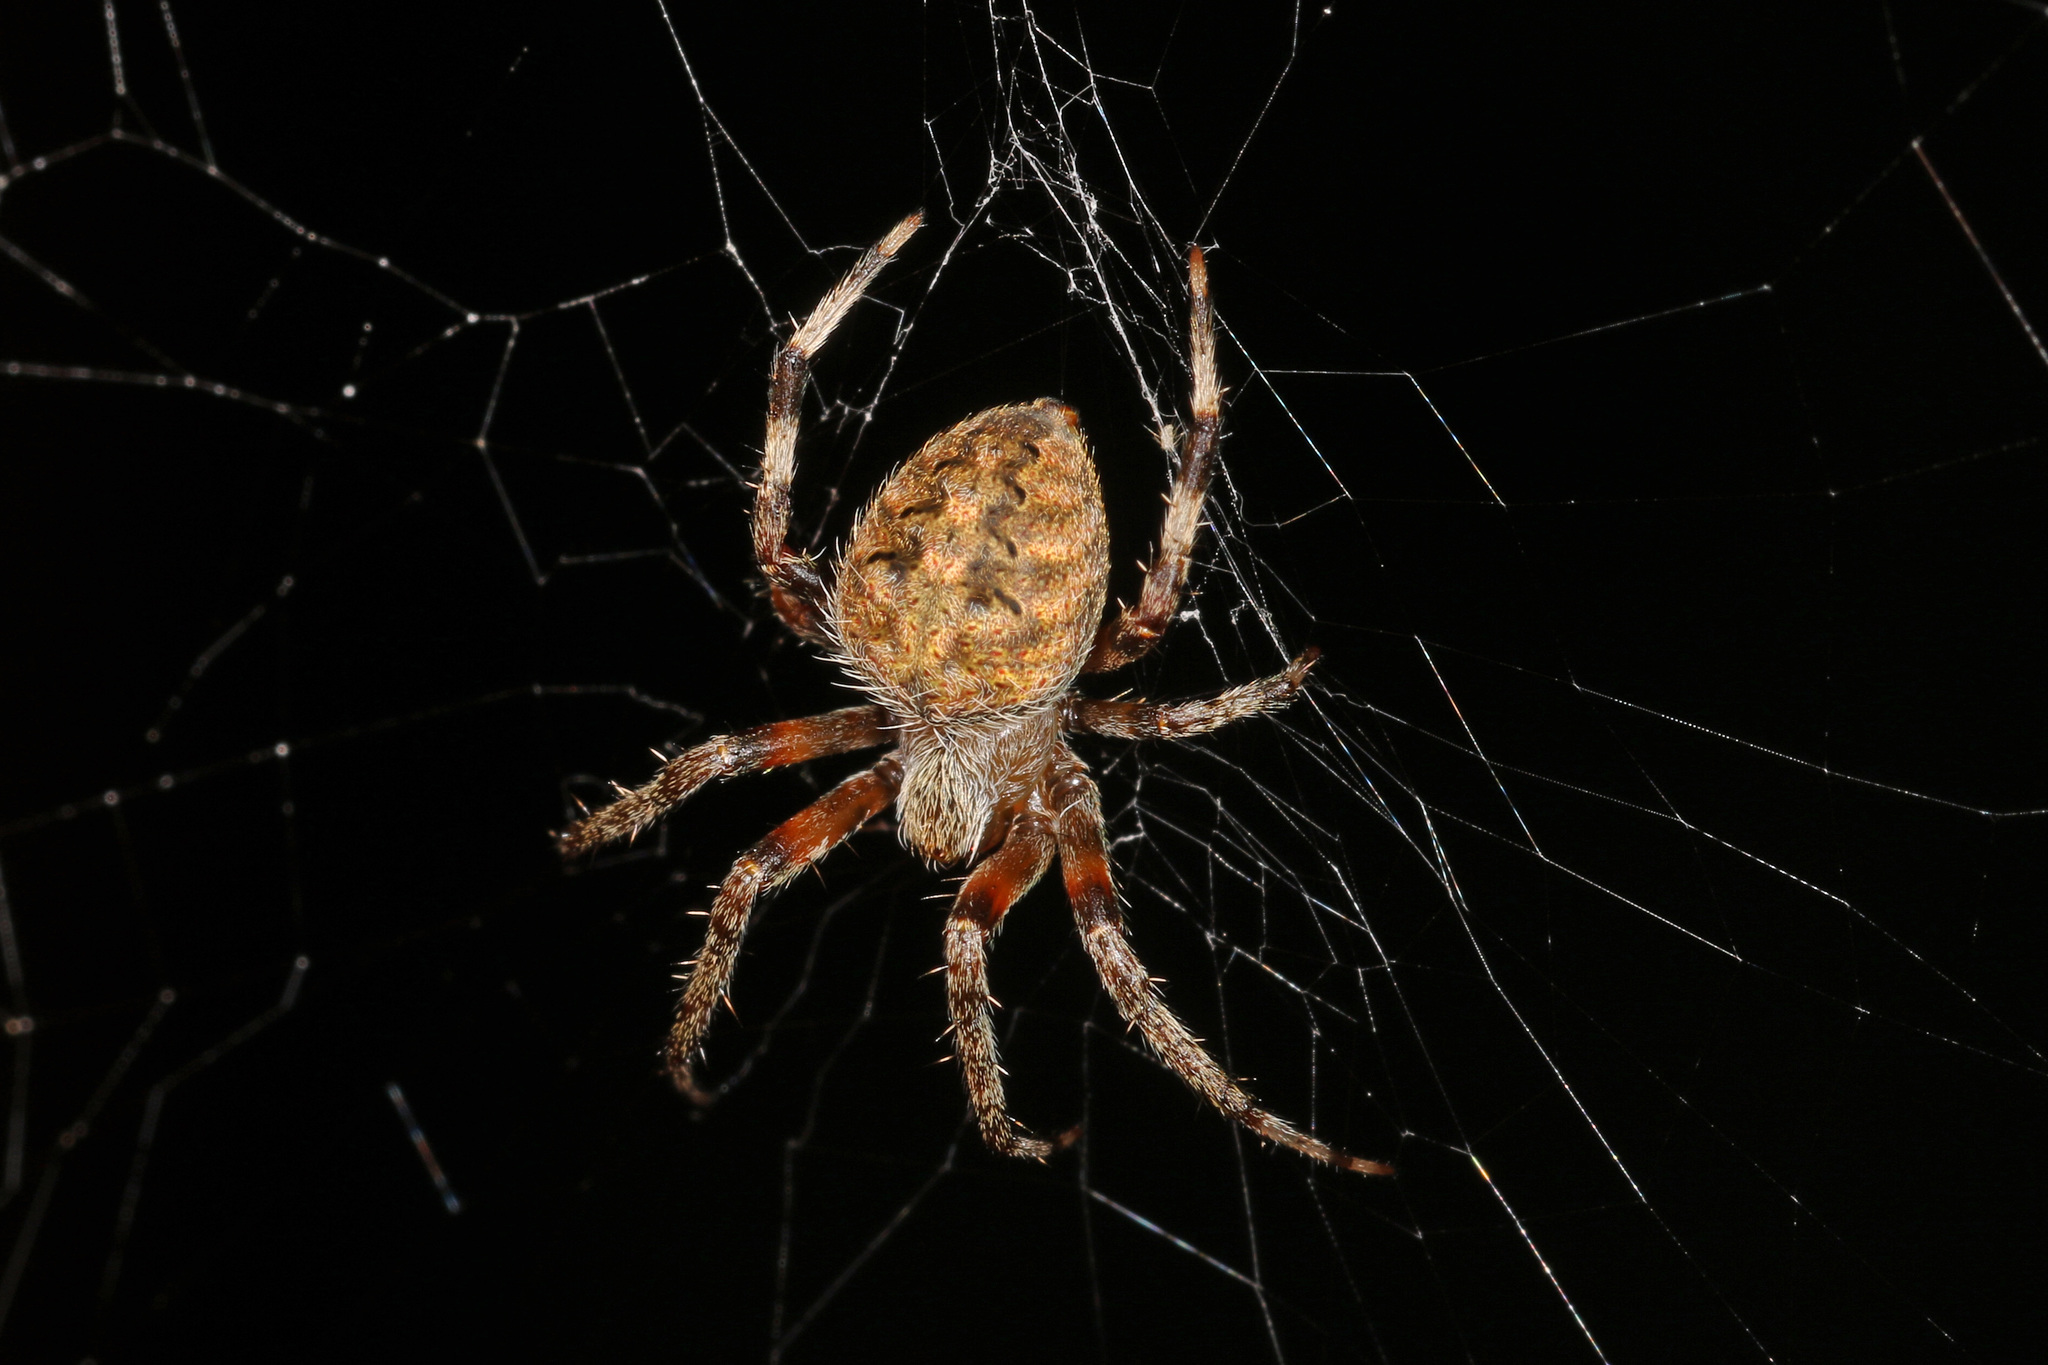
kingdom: Animalia
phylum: Arthropoda
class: Arachnida
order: Araneae
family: Araneidae
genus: Neoscona
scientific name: Neoscona crucifera
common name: Spotted orbweaver
